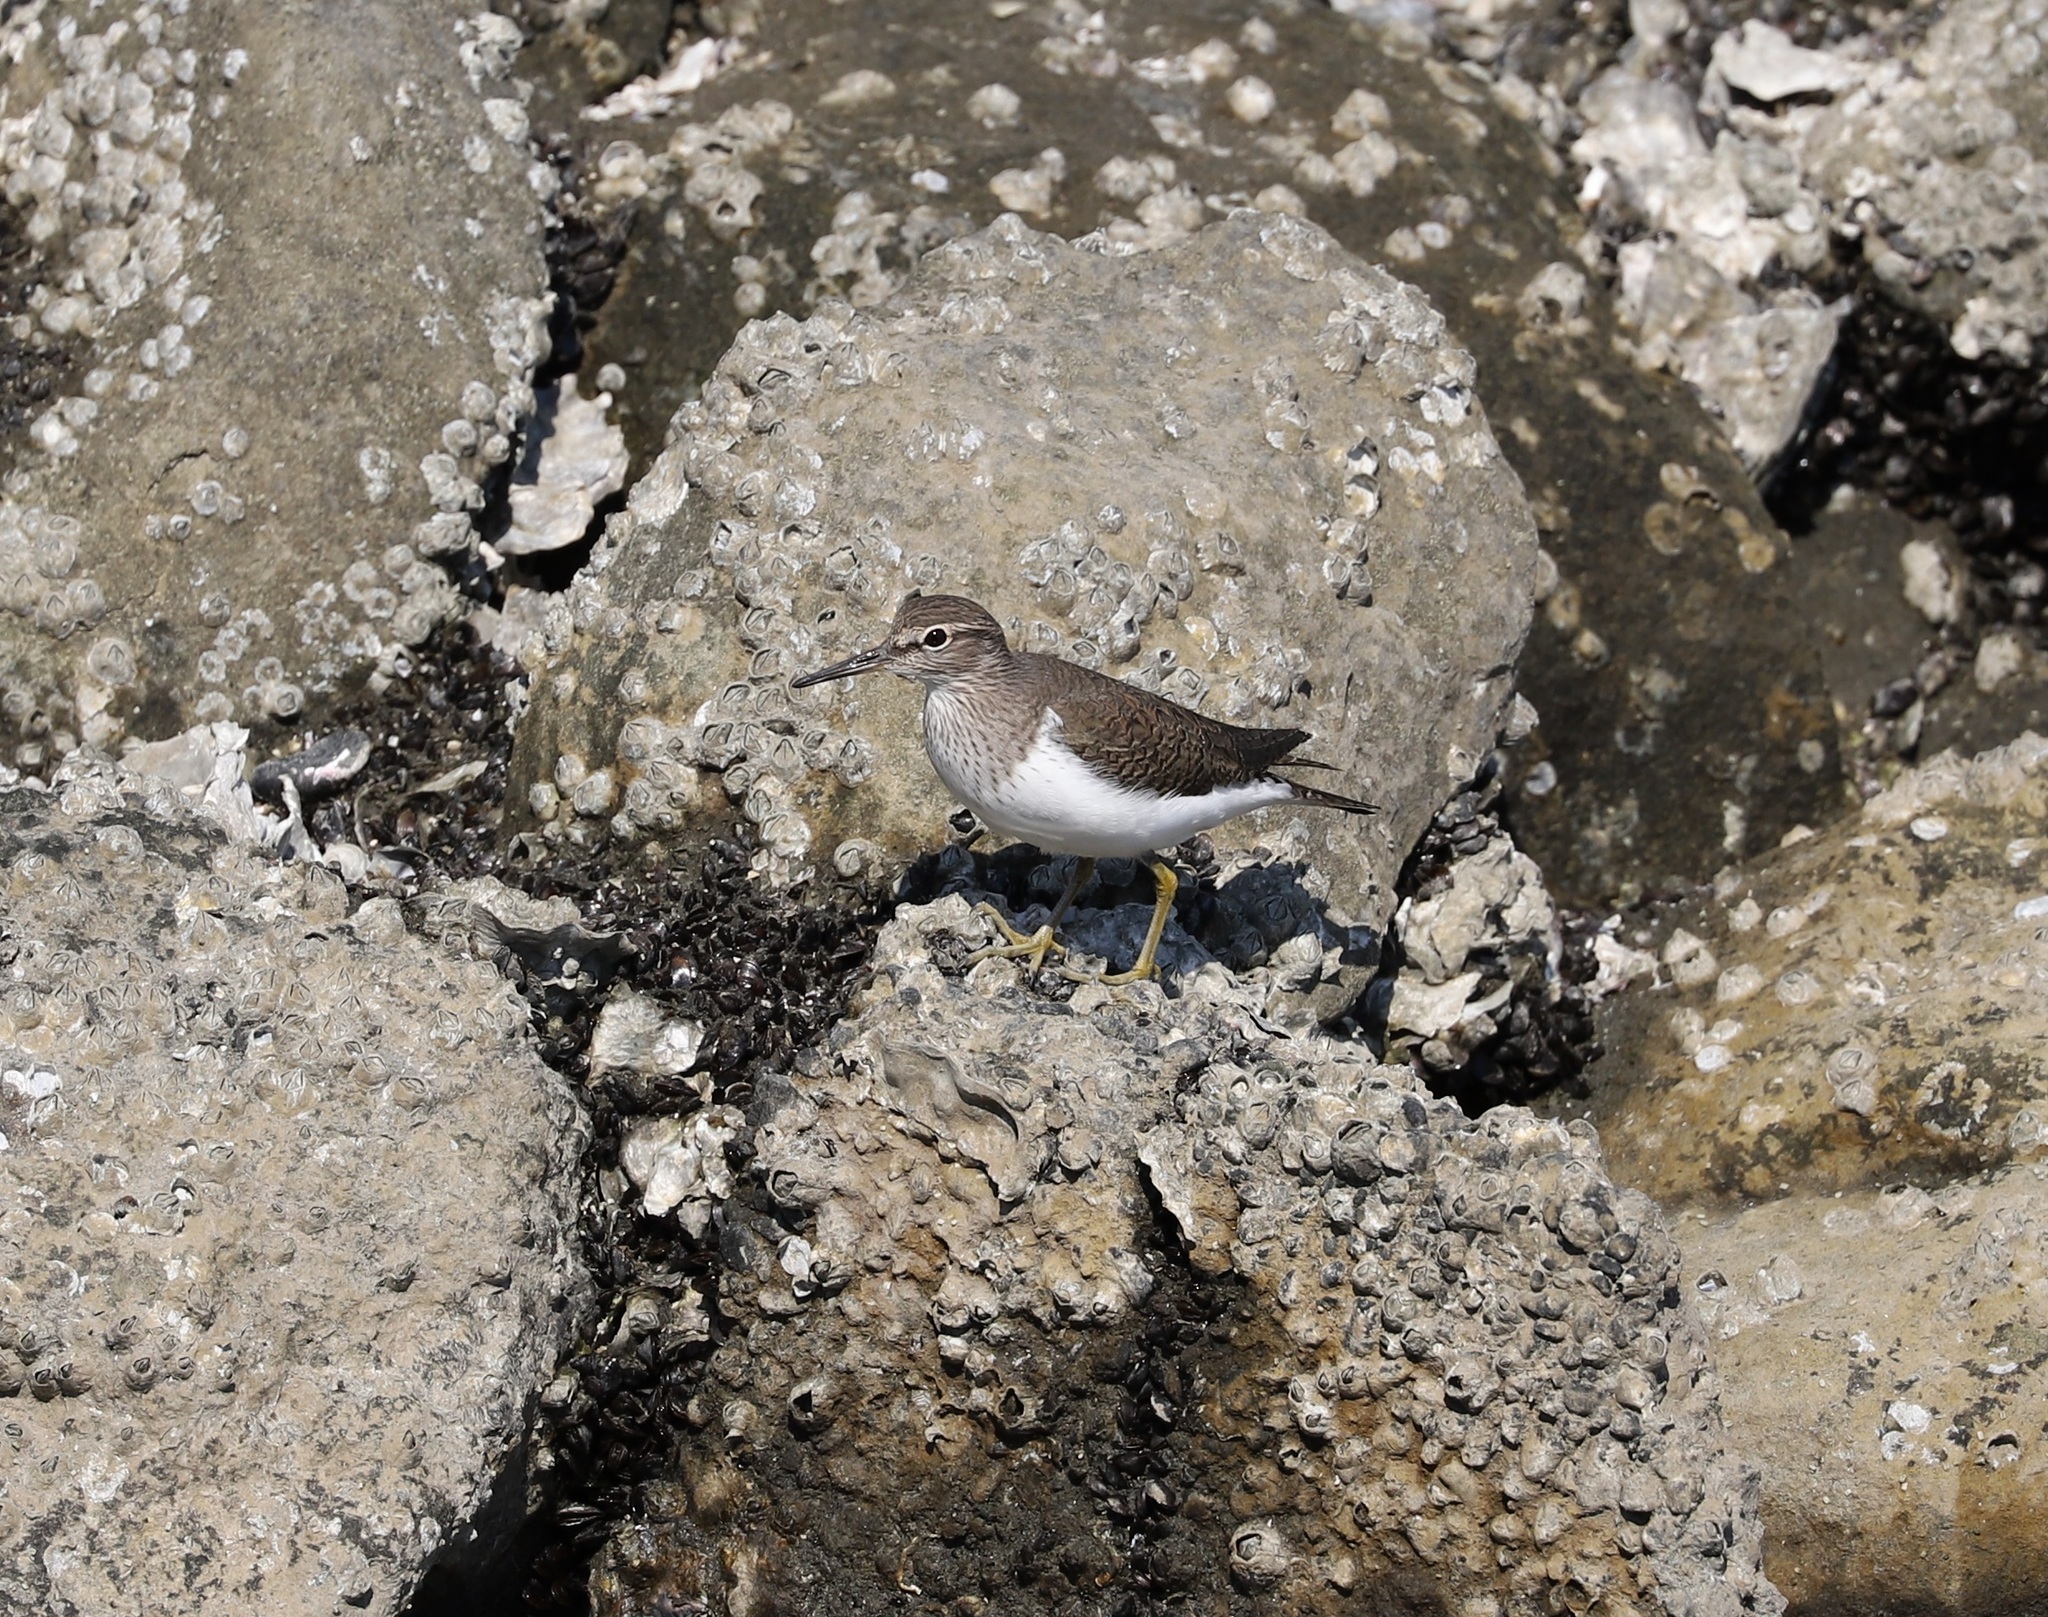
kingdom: Animalia
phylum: Chordata
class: Aves
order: Charadriiformes
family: Scolopacidae
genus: Actitis
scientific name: Actitis hypoleucos
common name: Common sandpiper
